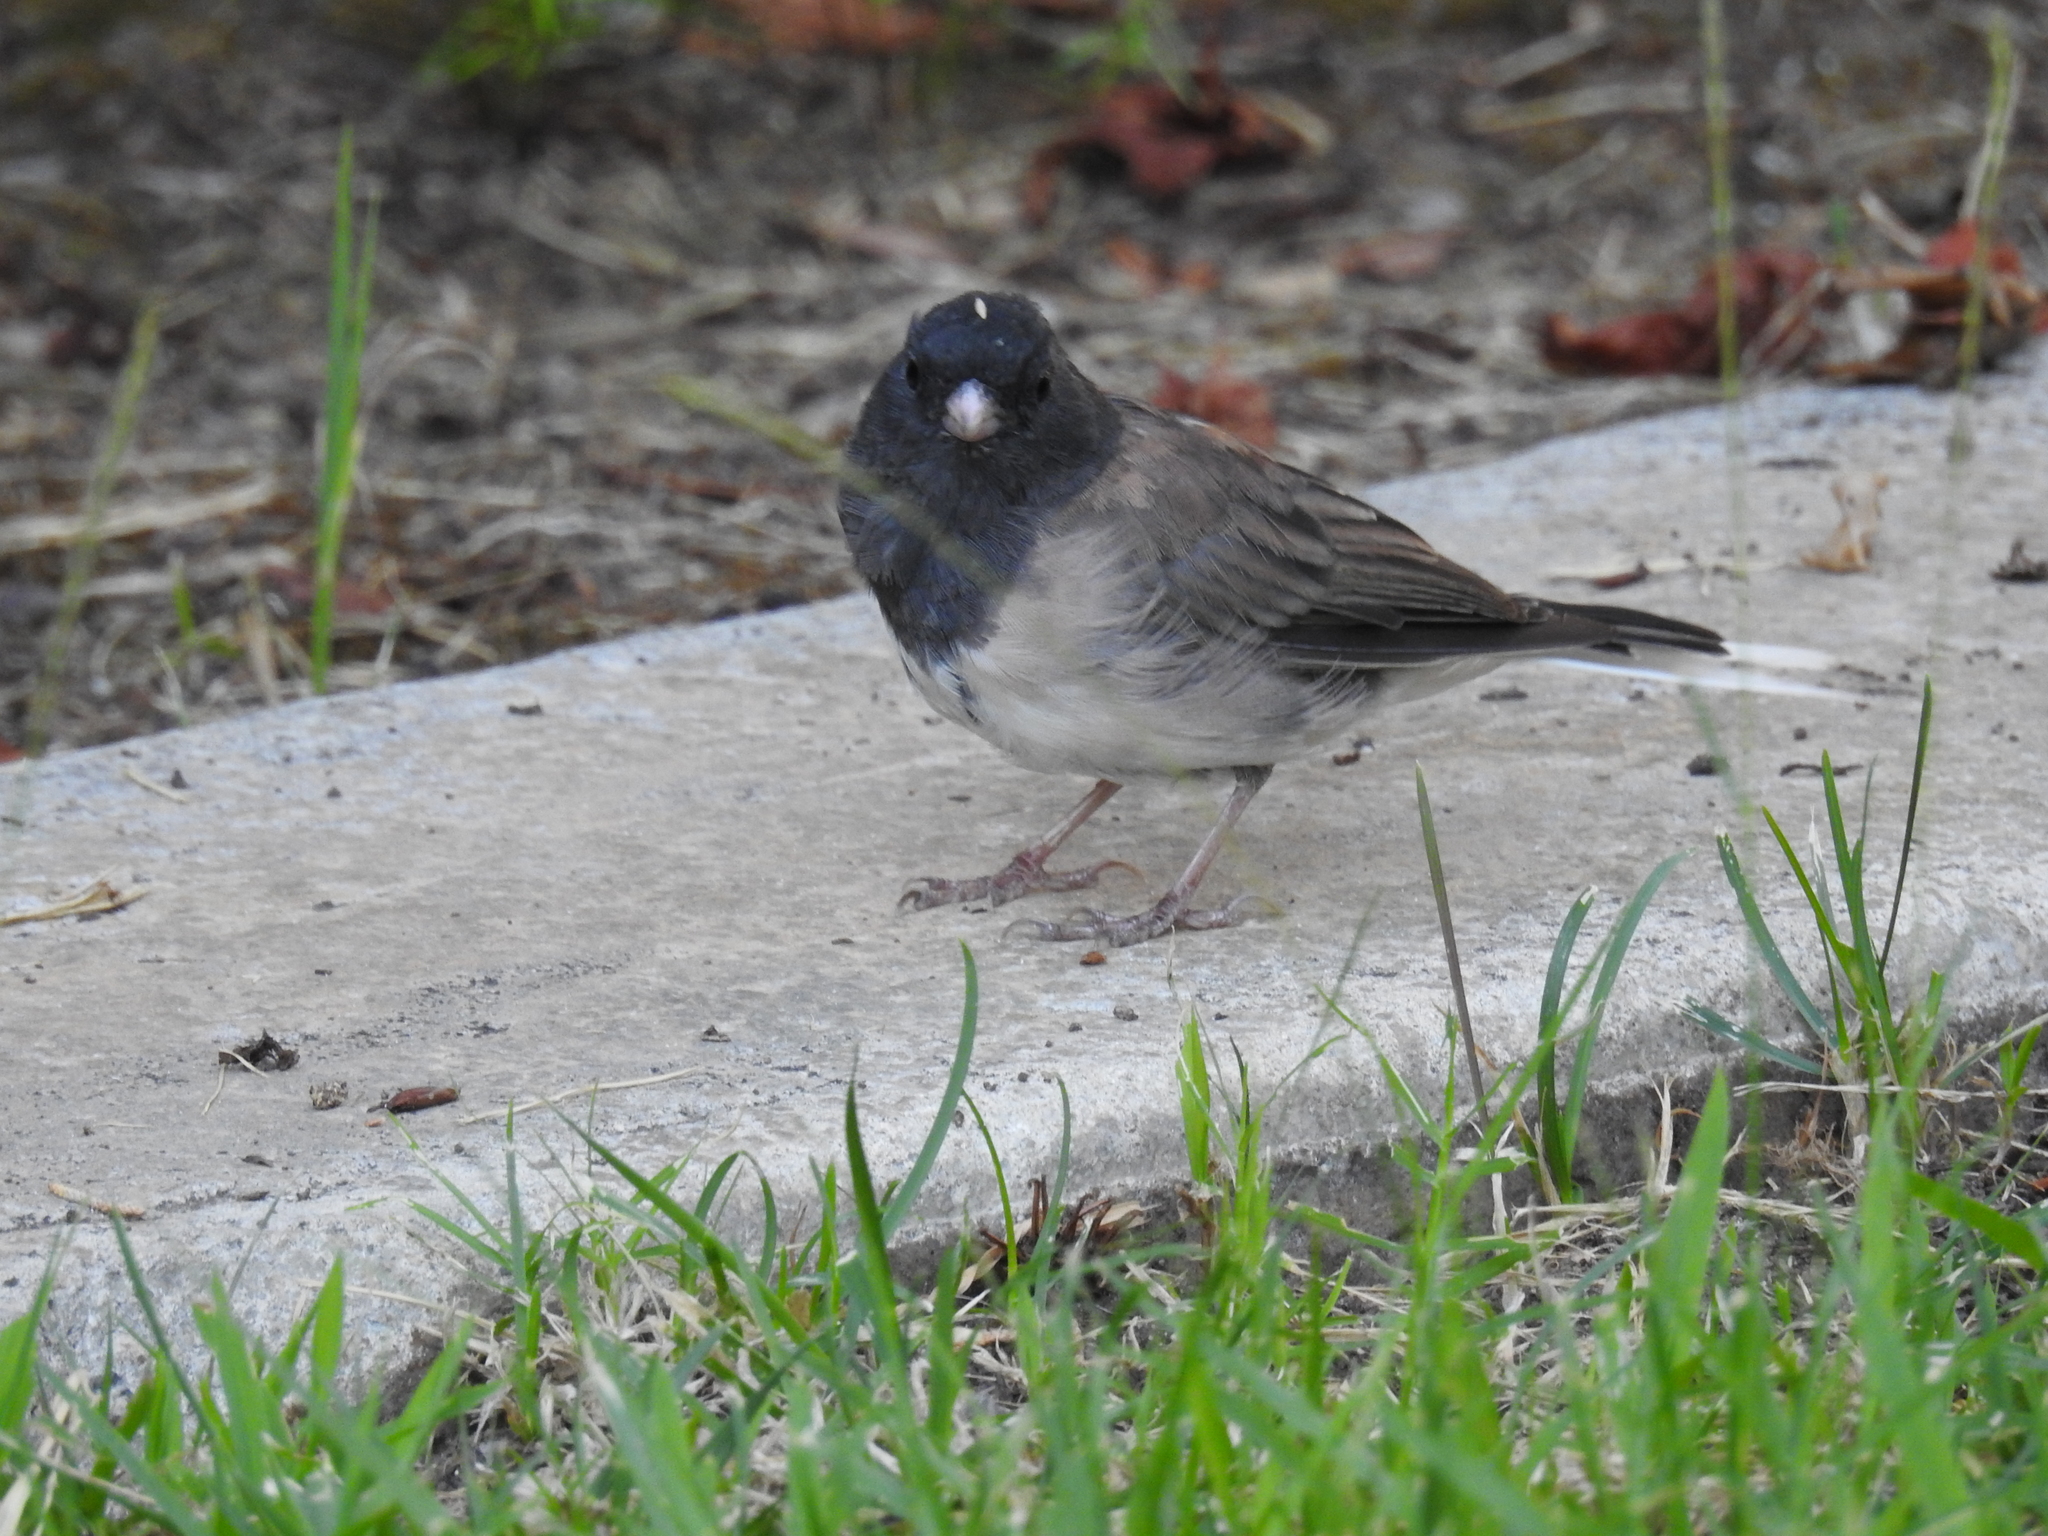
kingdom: Animalia
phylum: Chordata
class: Aves
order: Passeriformes
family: Passerellidae
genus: Junco
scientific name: Junco hyemalis
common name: Dark-eyed junco
